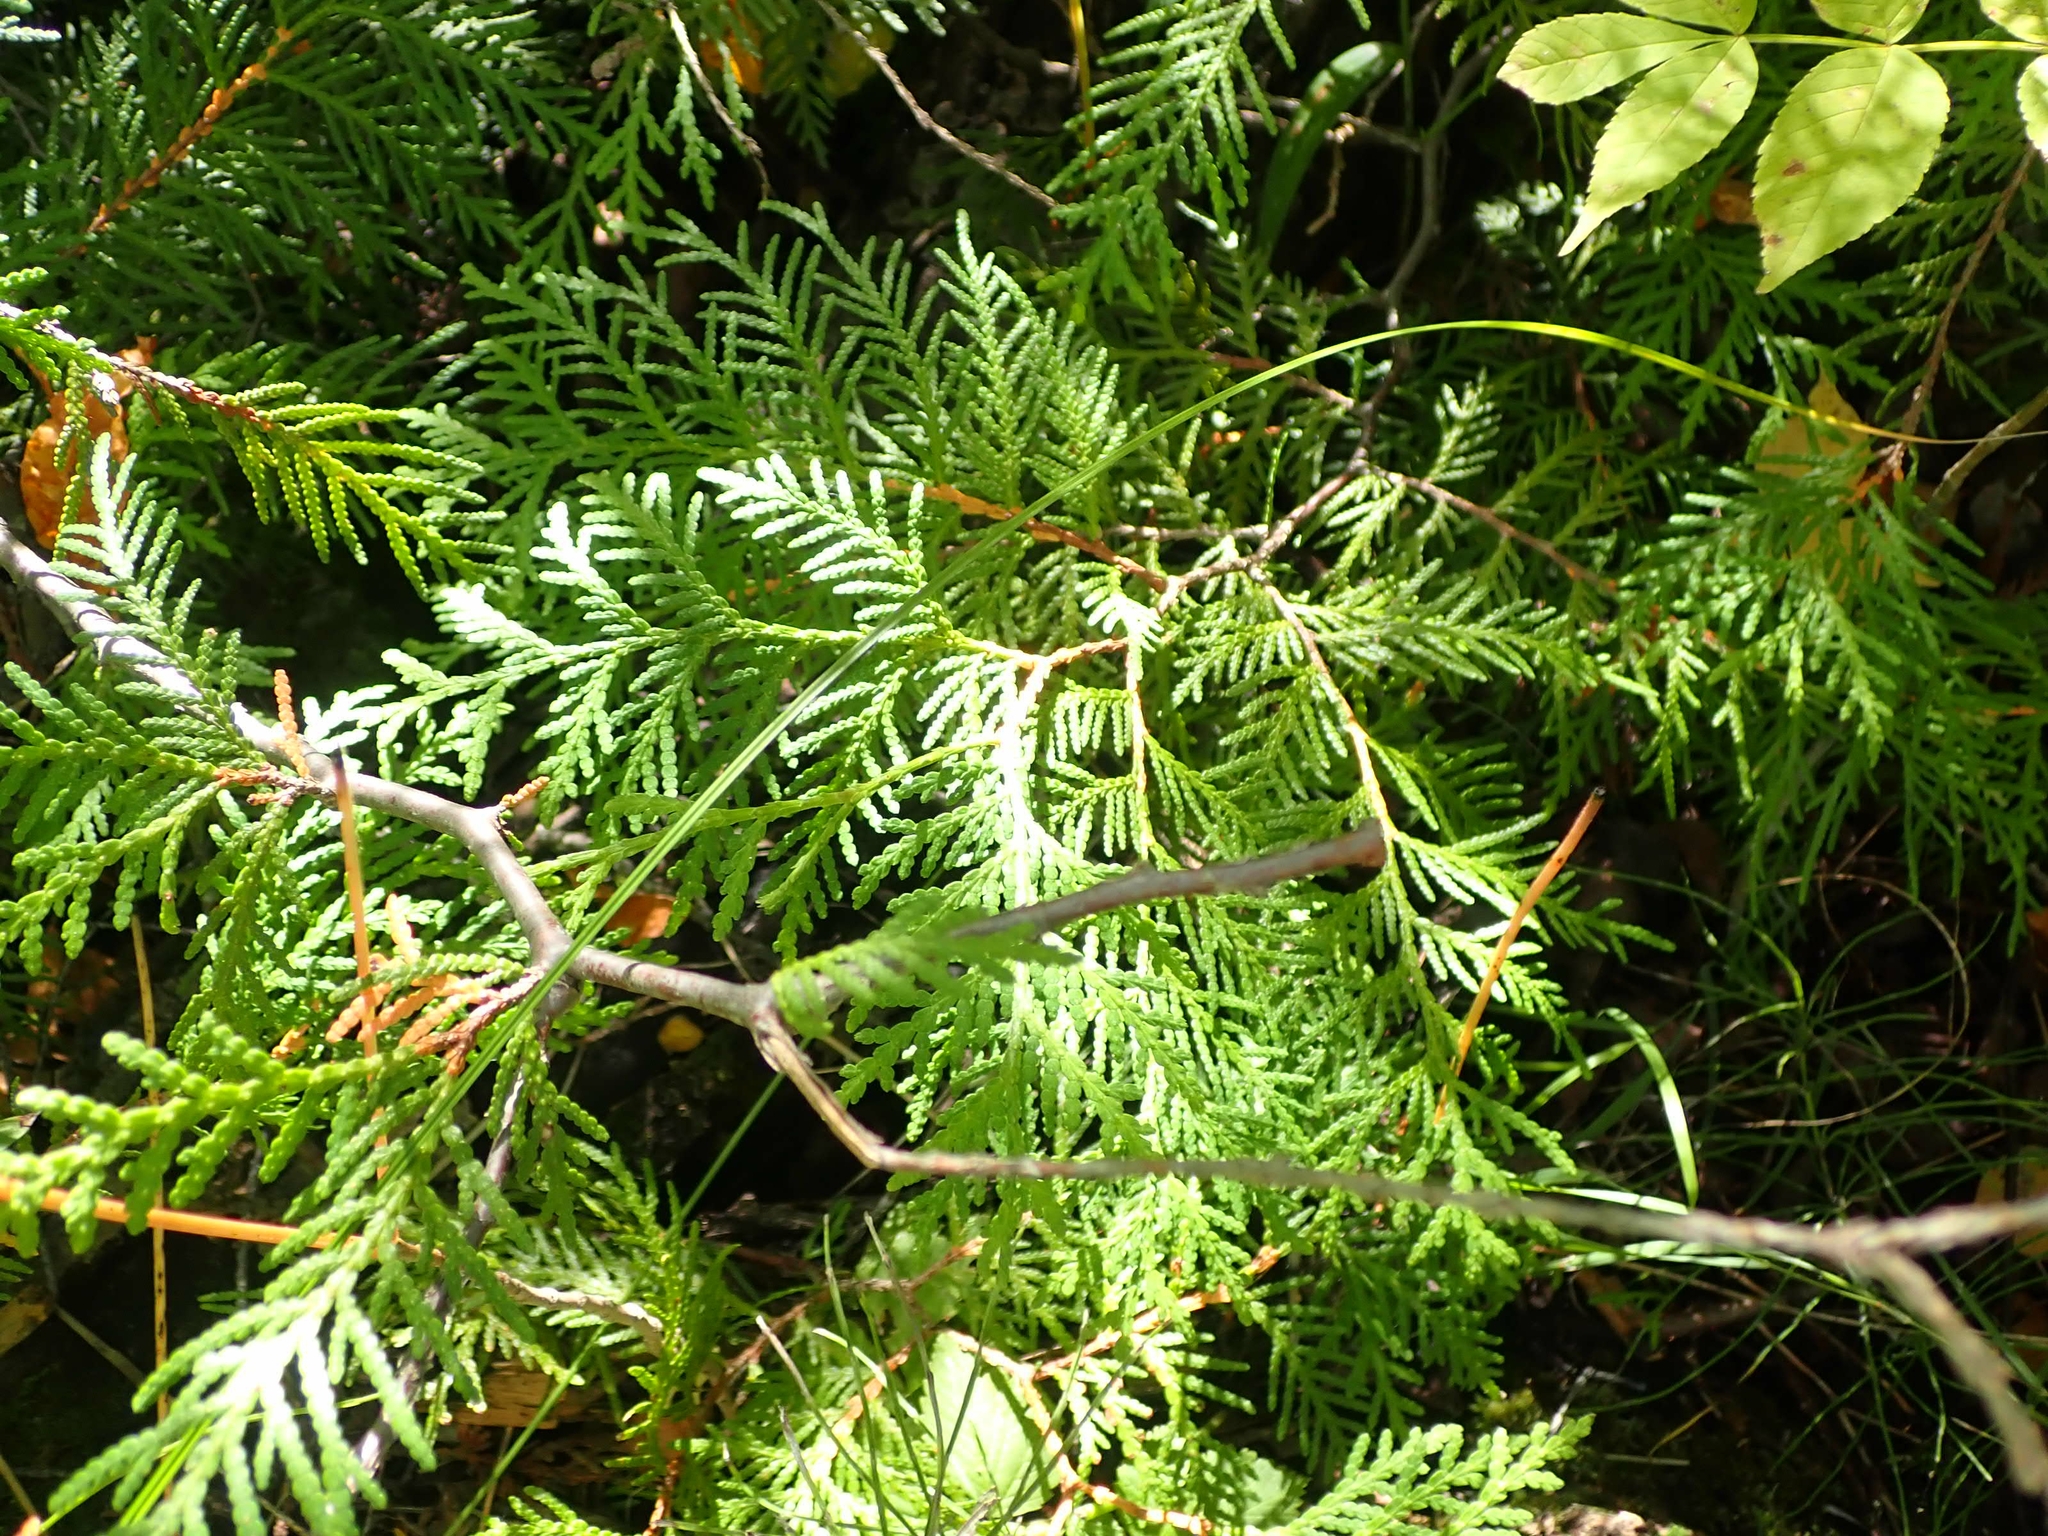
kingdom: Plantae
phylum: Tracheophyta
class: Pinopsida
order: Pinales
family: Cupressaceae
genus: Thuja
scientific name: Thuja occidentalis
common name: Northern white-cedar
